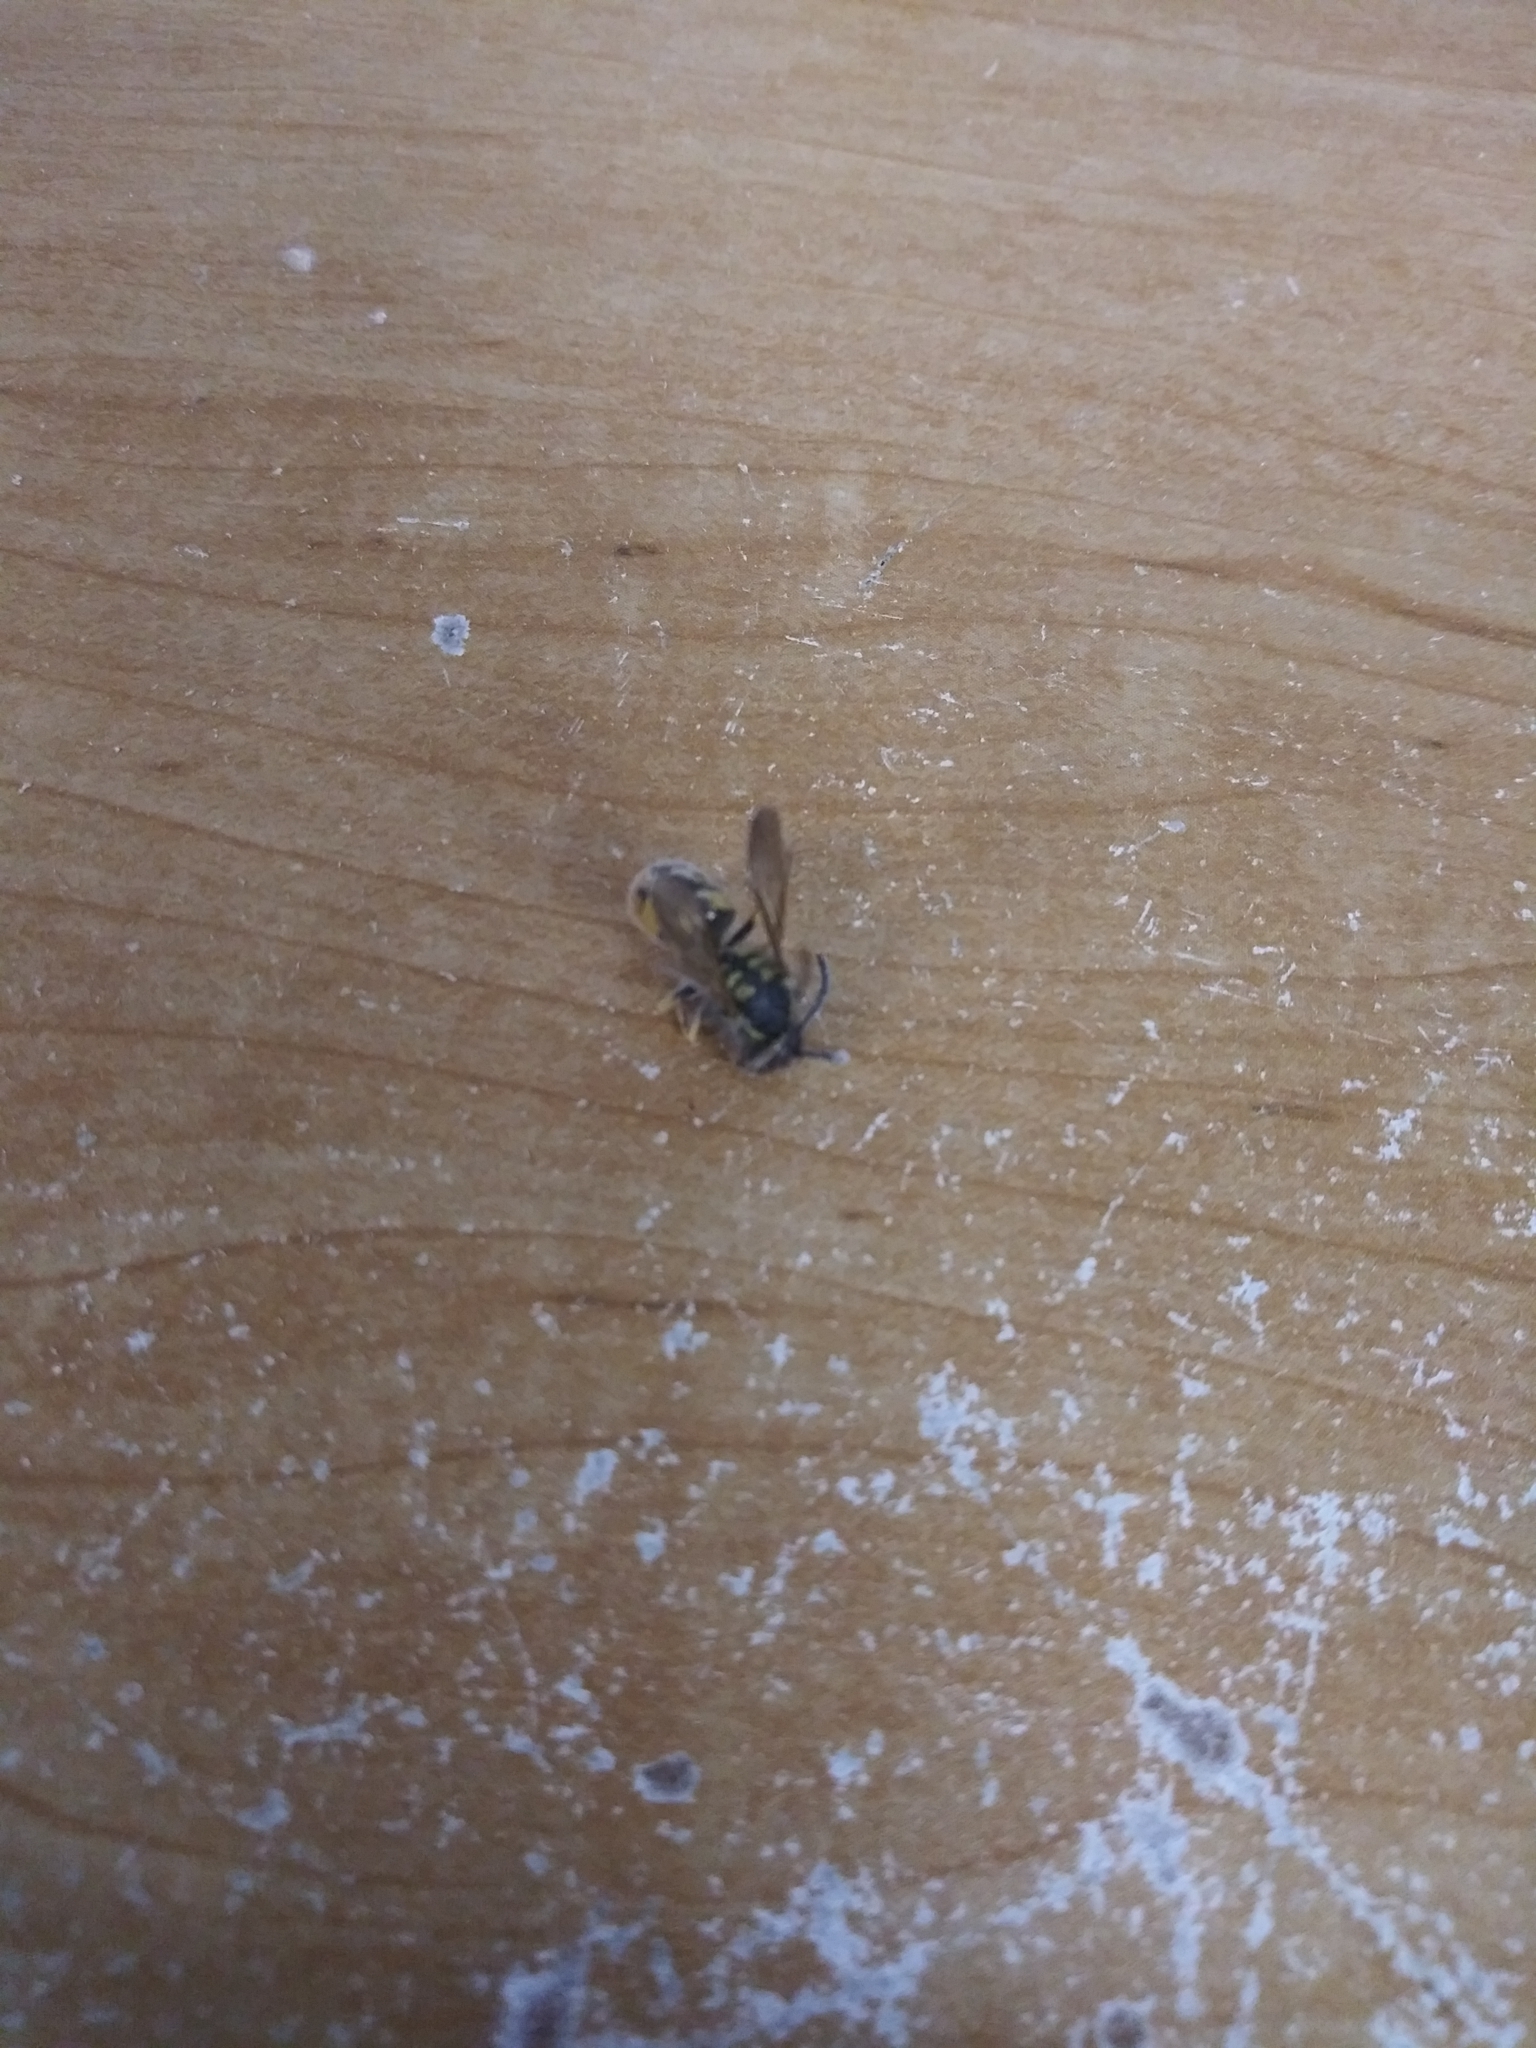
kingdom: Animalia
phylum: Arthropoda
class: Insecta
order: Hymenoptera
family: Vespidae
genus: Vespula
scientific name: Vespula germanica
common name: German wasp
